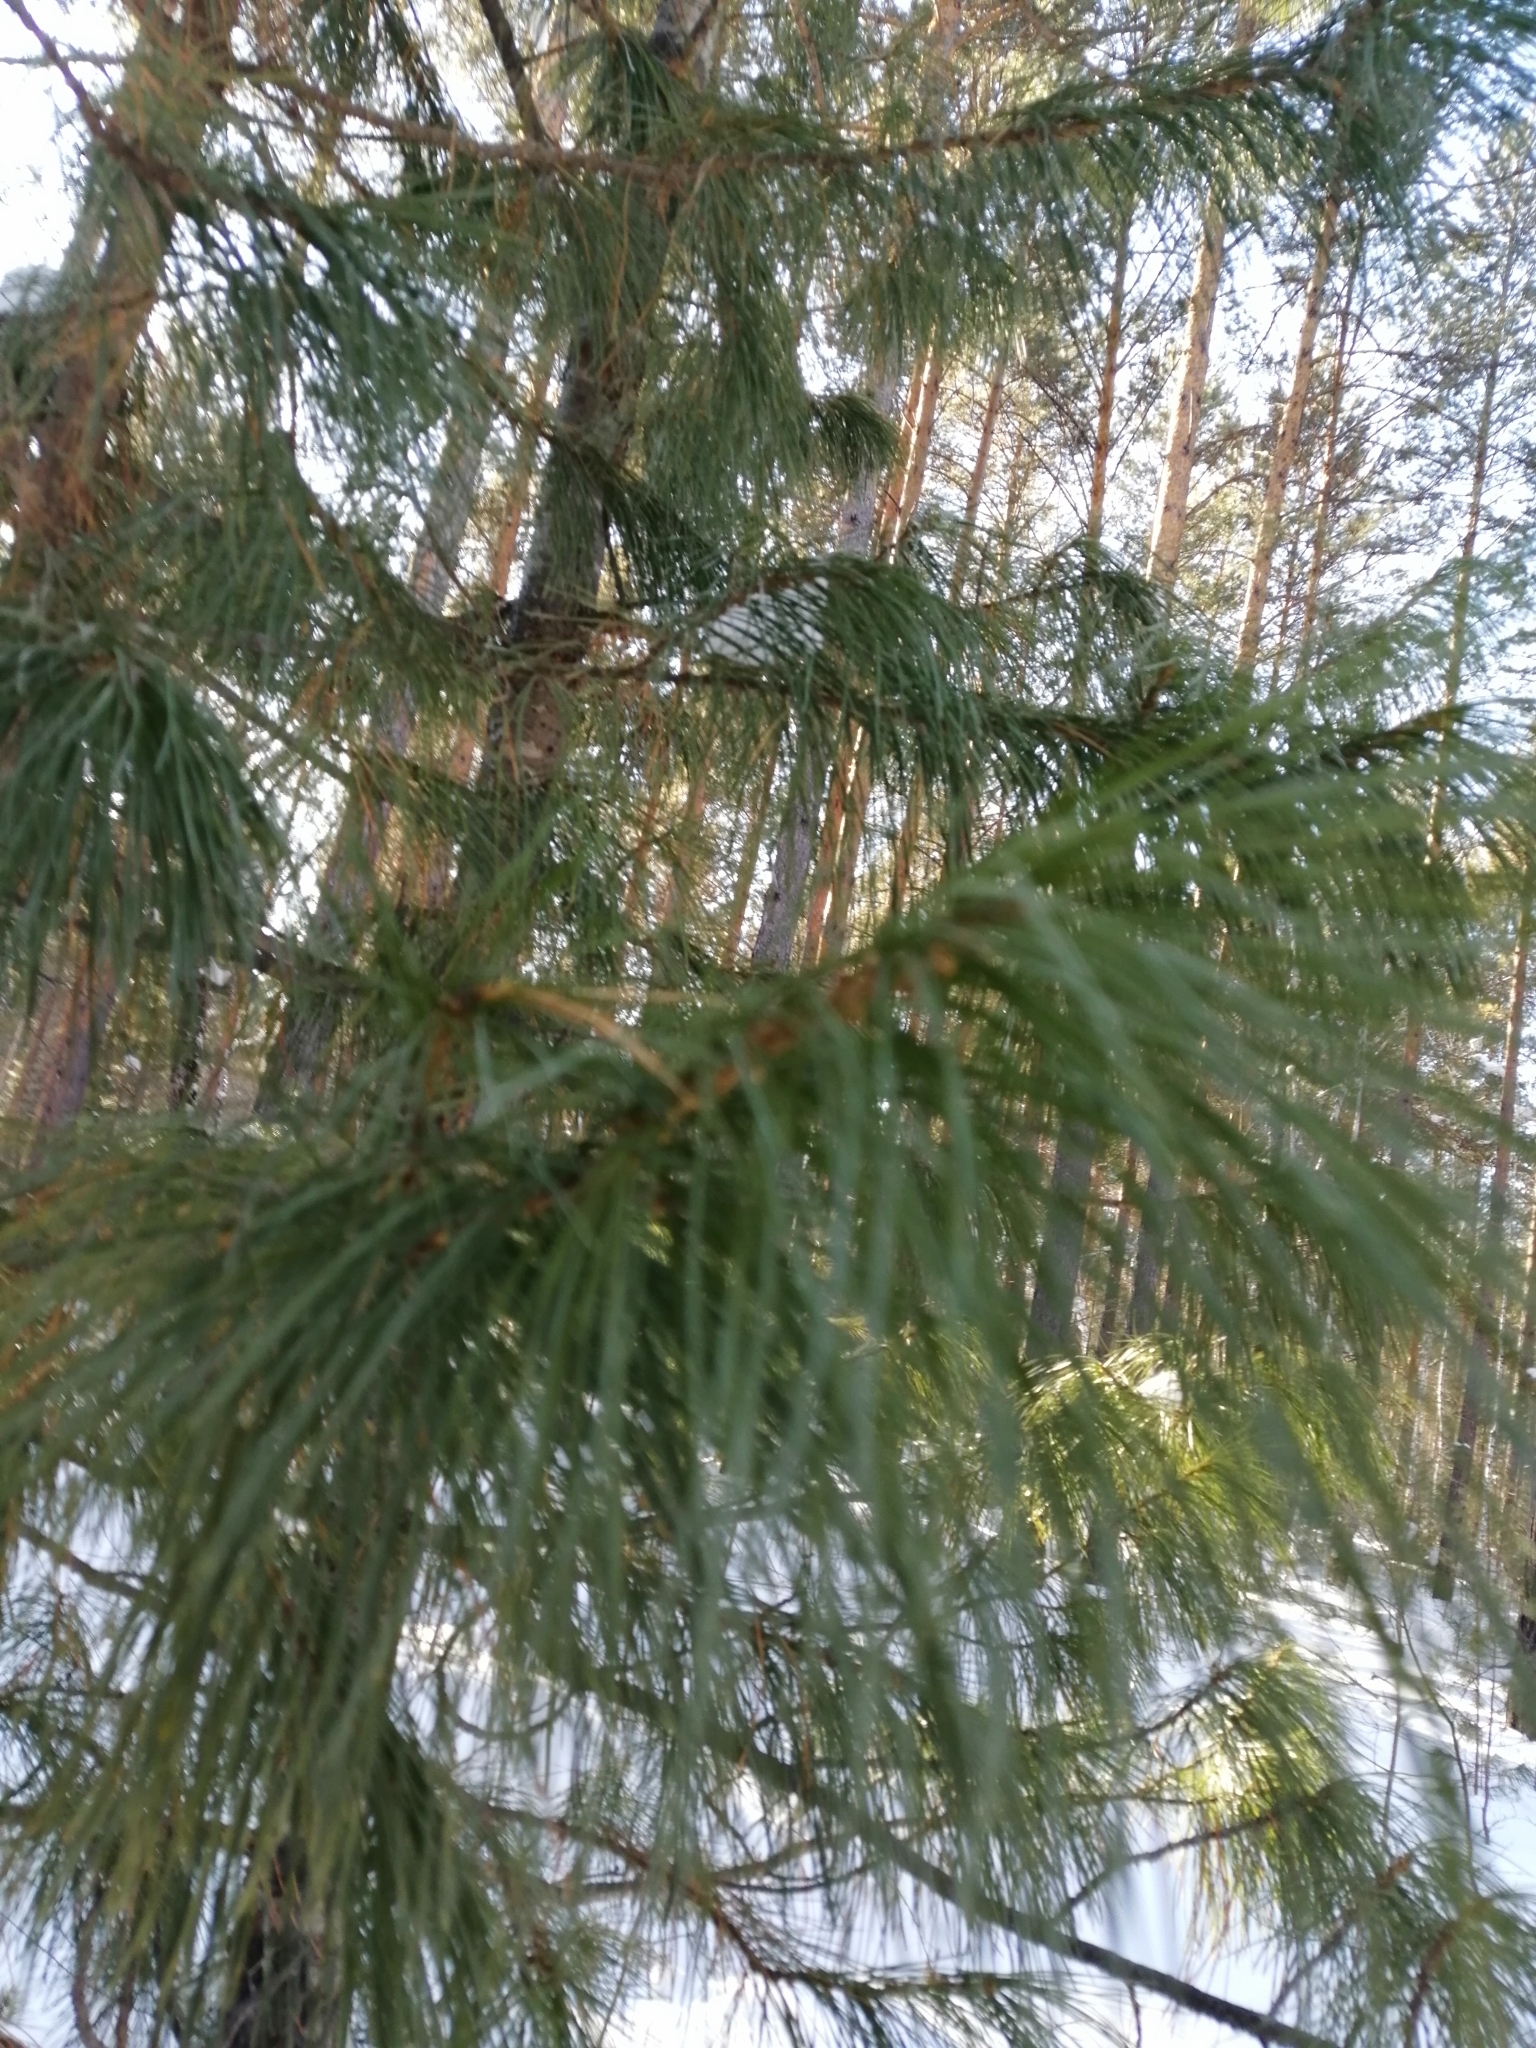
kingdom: Plantae
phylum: Tracheophyta
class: Pinopsida
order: Pinales
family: Pinaceae
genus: Pinus
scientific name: Pinus sibirica
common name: Siberian pine
